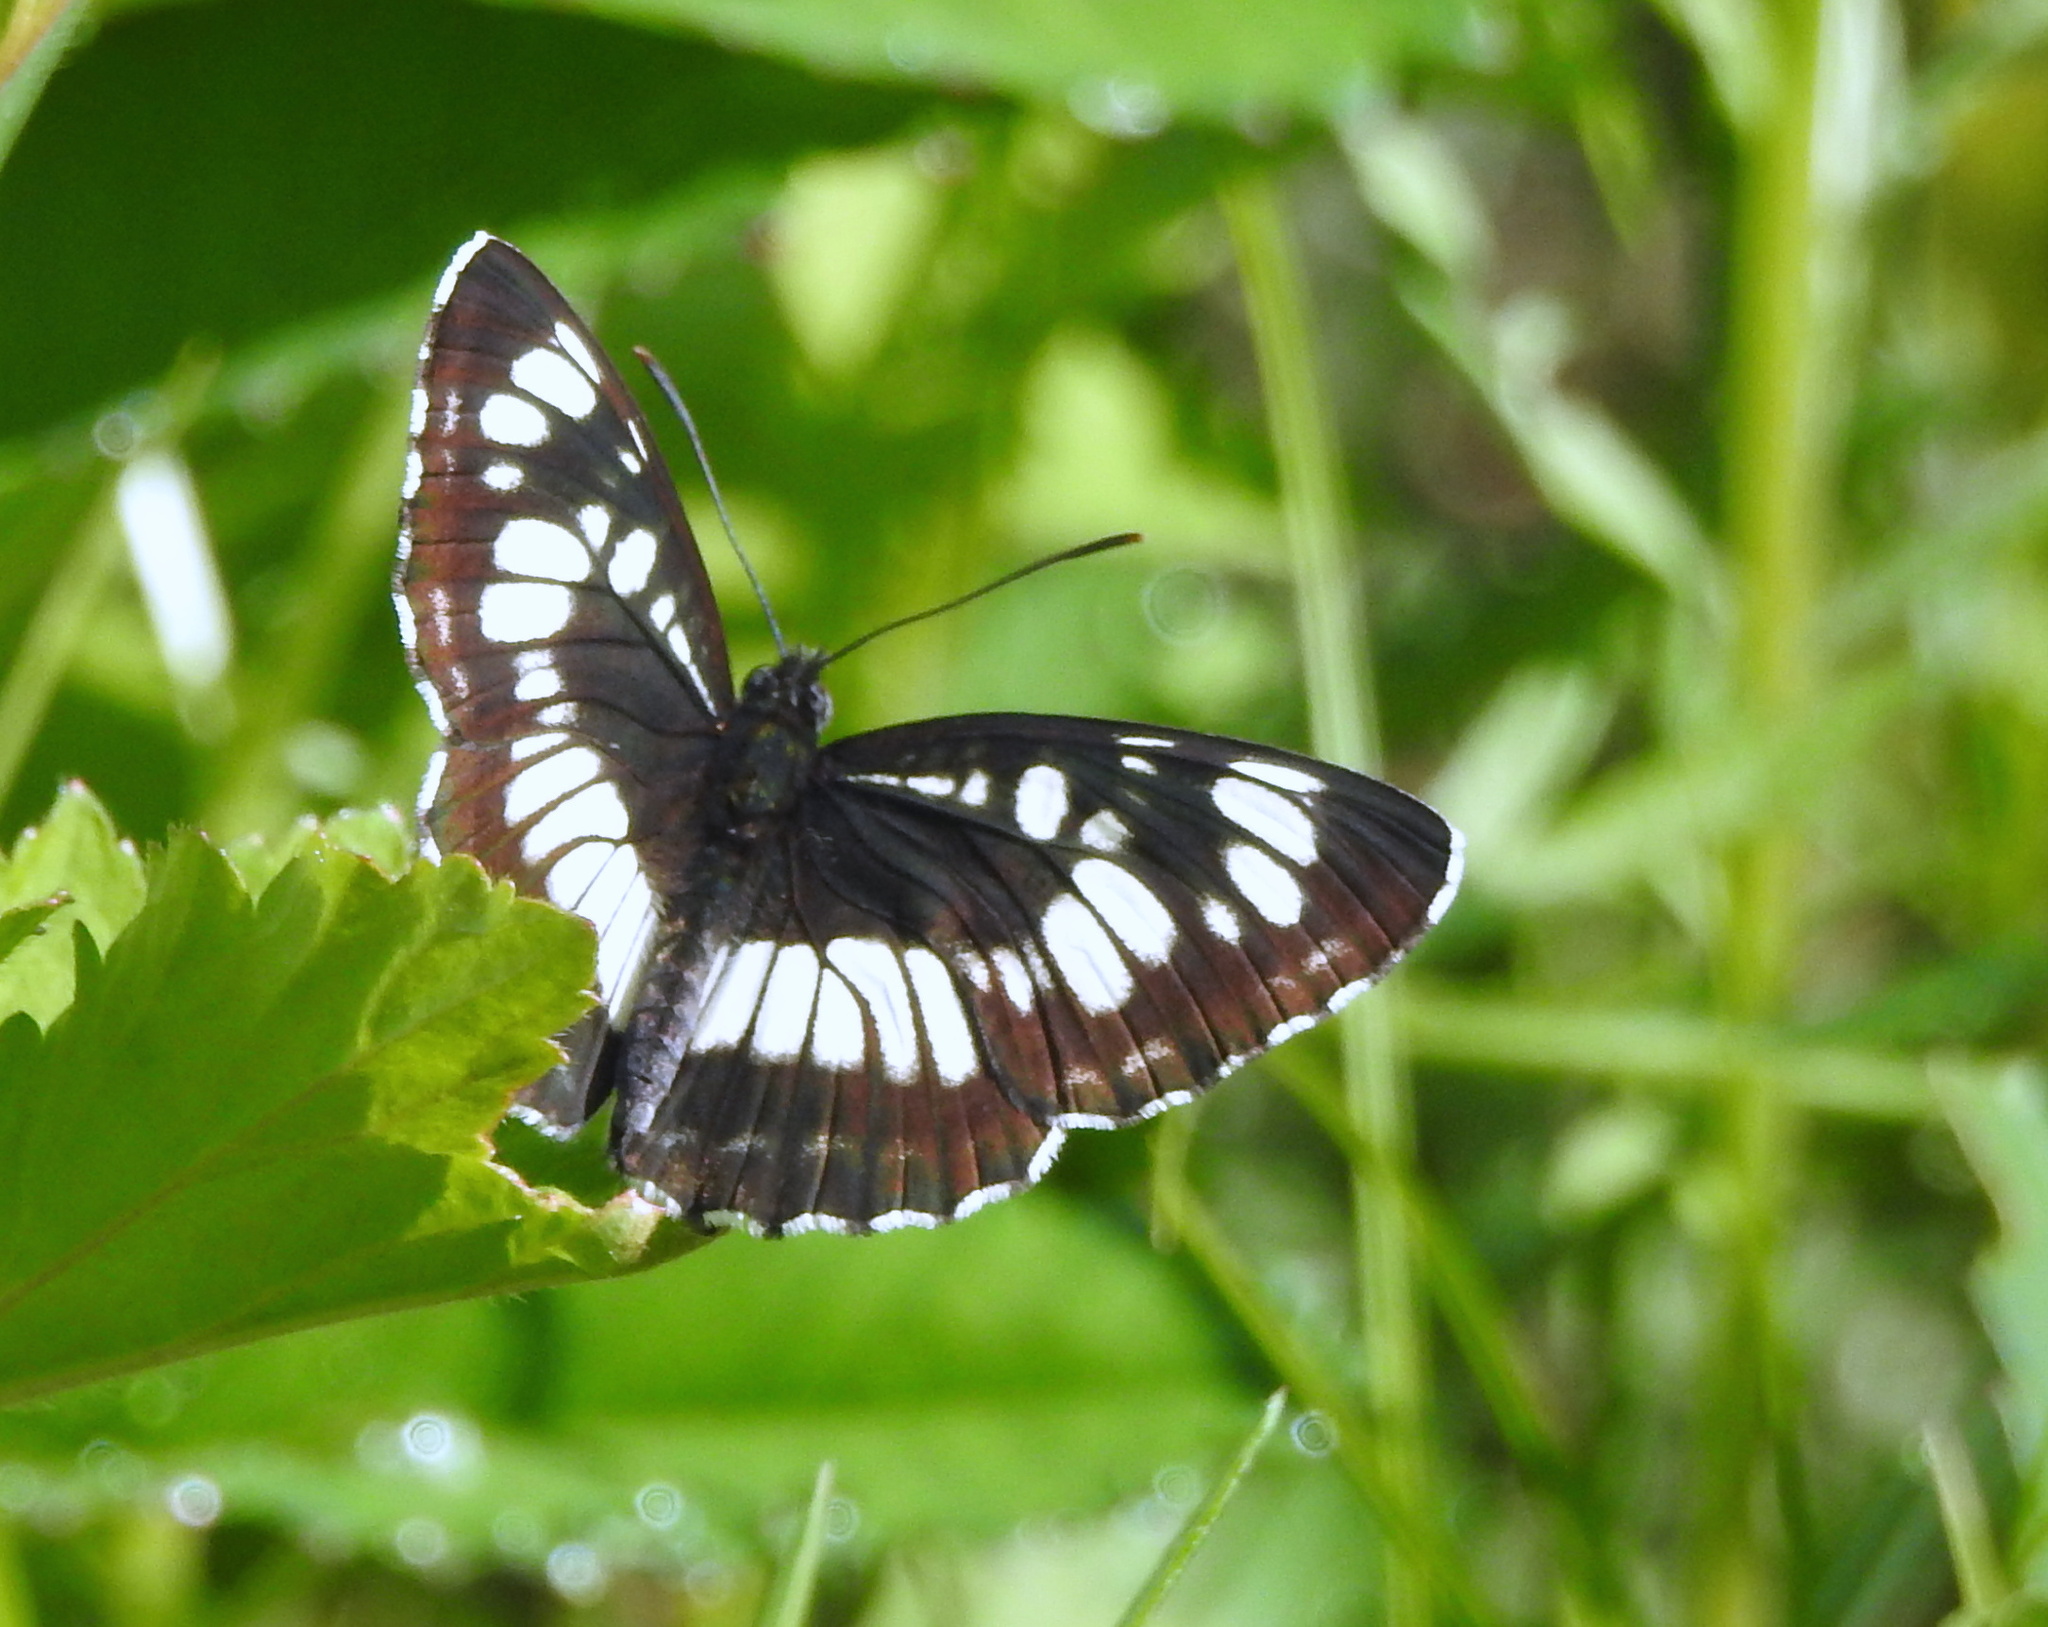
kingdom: Animalia
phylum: Arthropoda
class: Insecta
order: Lepidoptera
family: Nymphalidae
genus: Neptis
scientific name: Neptis rivularis
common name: Hungarian glider
